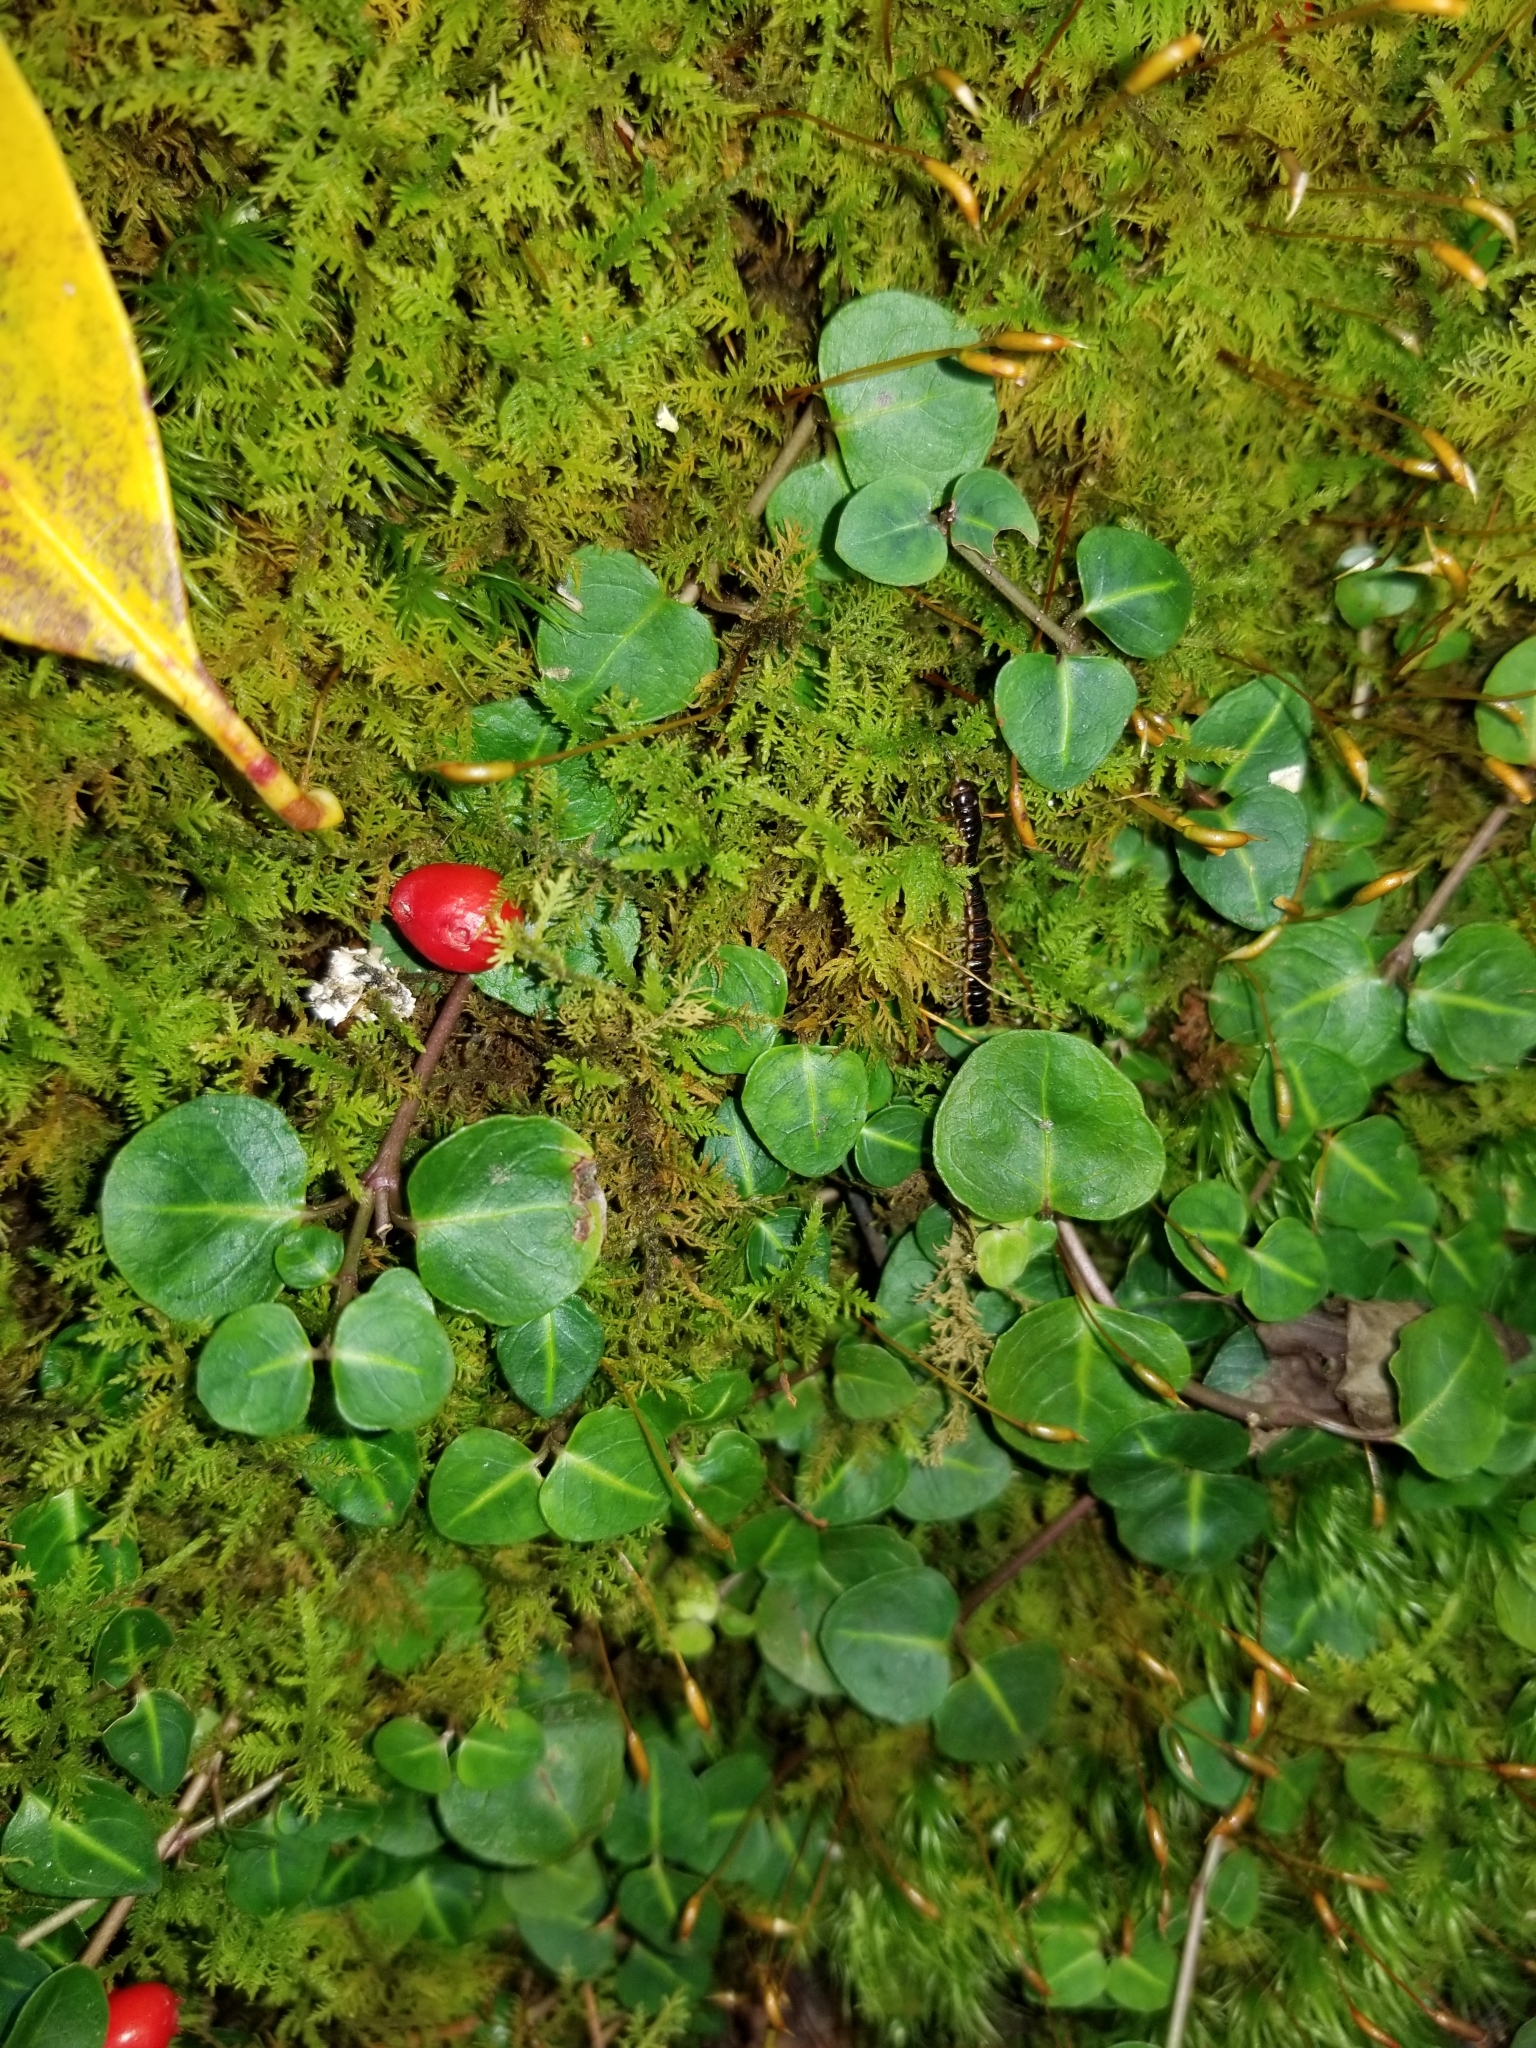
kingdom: Plantae
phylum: Tracheophyta
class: Magnoliopsida
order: Gentianales
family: Rubiaceae
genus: Mitchella
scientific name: Mitchella repens
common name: Partridge-berry
